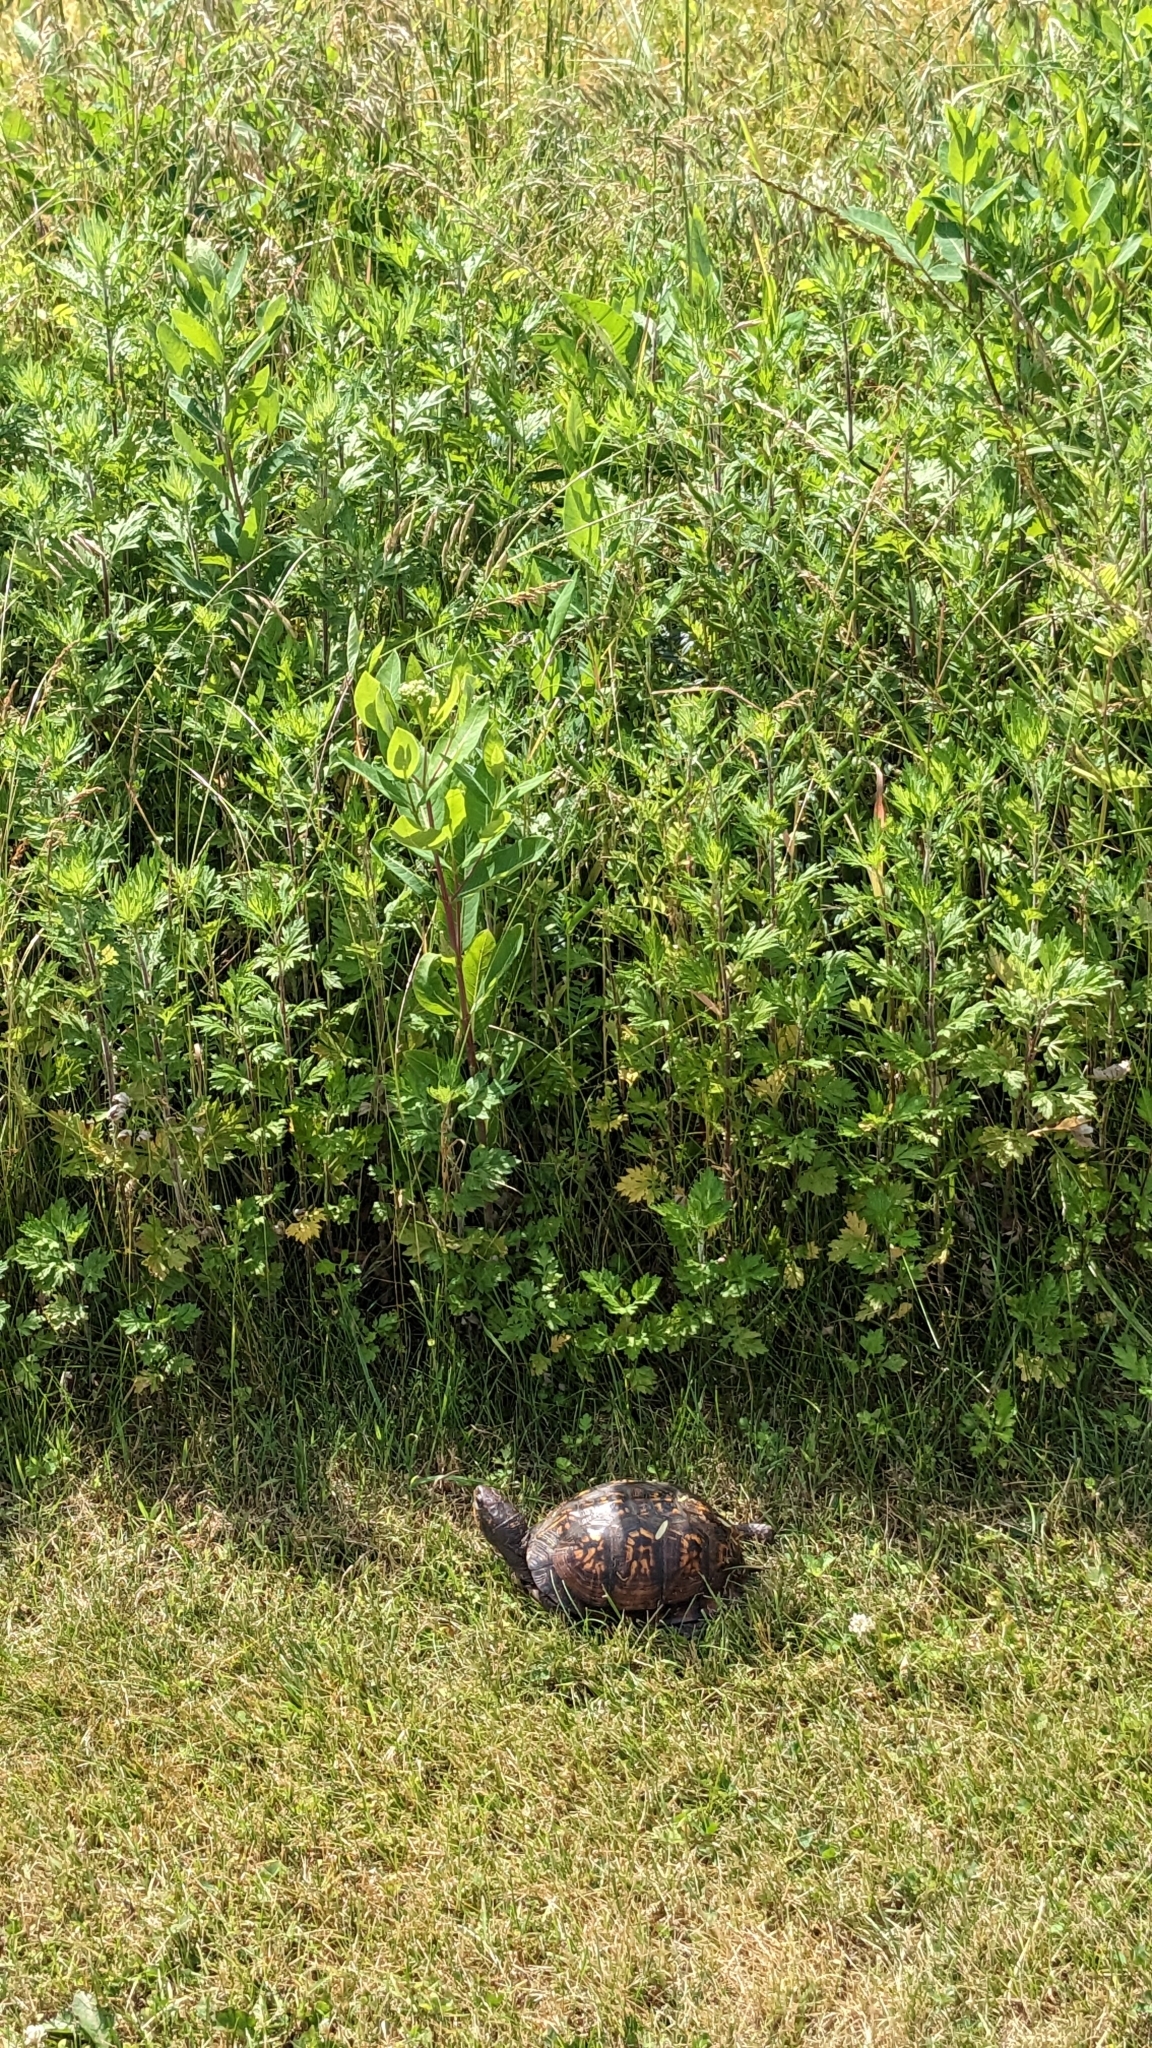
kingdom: Animalia
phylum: Chordata
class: Testudines
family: Emydidae
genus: Terrapene
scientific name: Terrapene carolina
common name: Common box turtle
